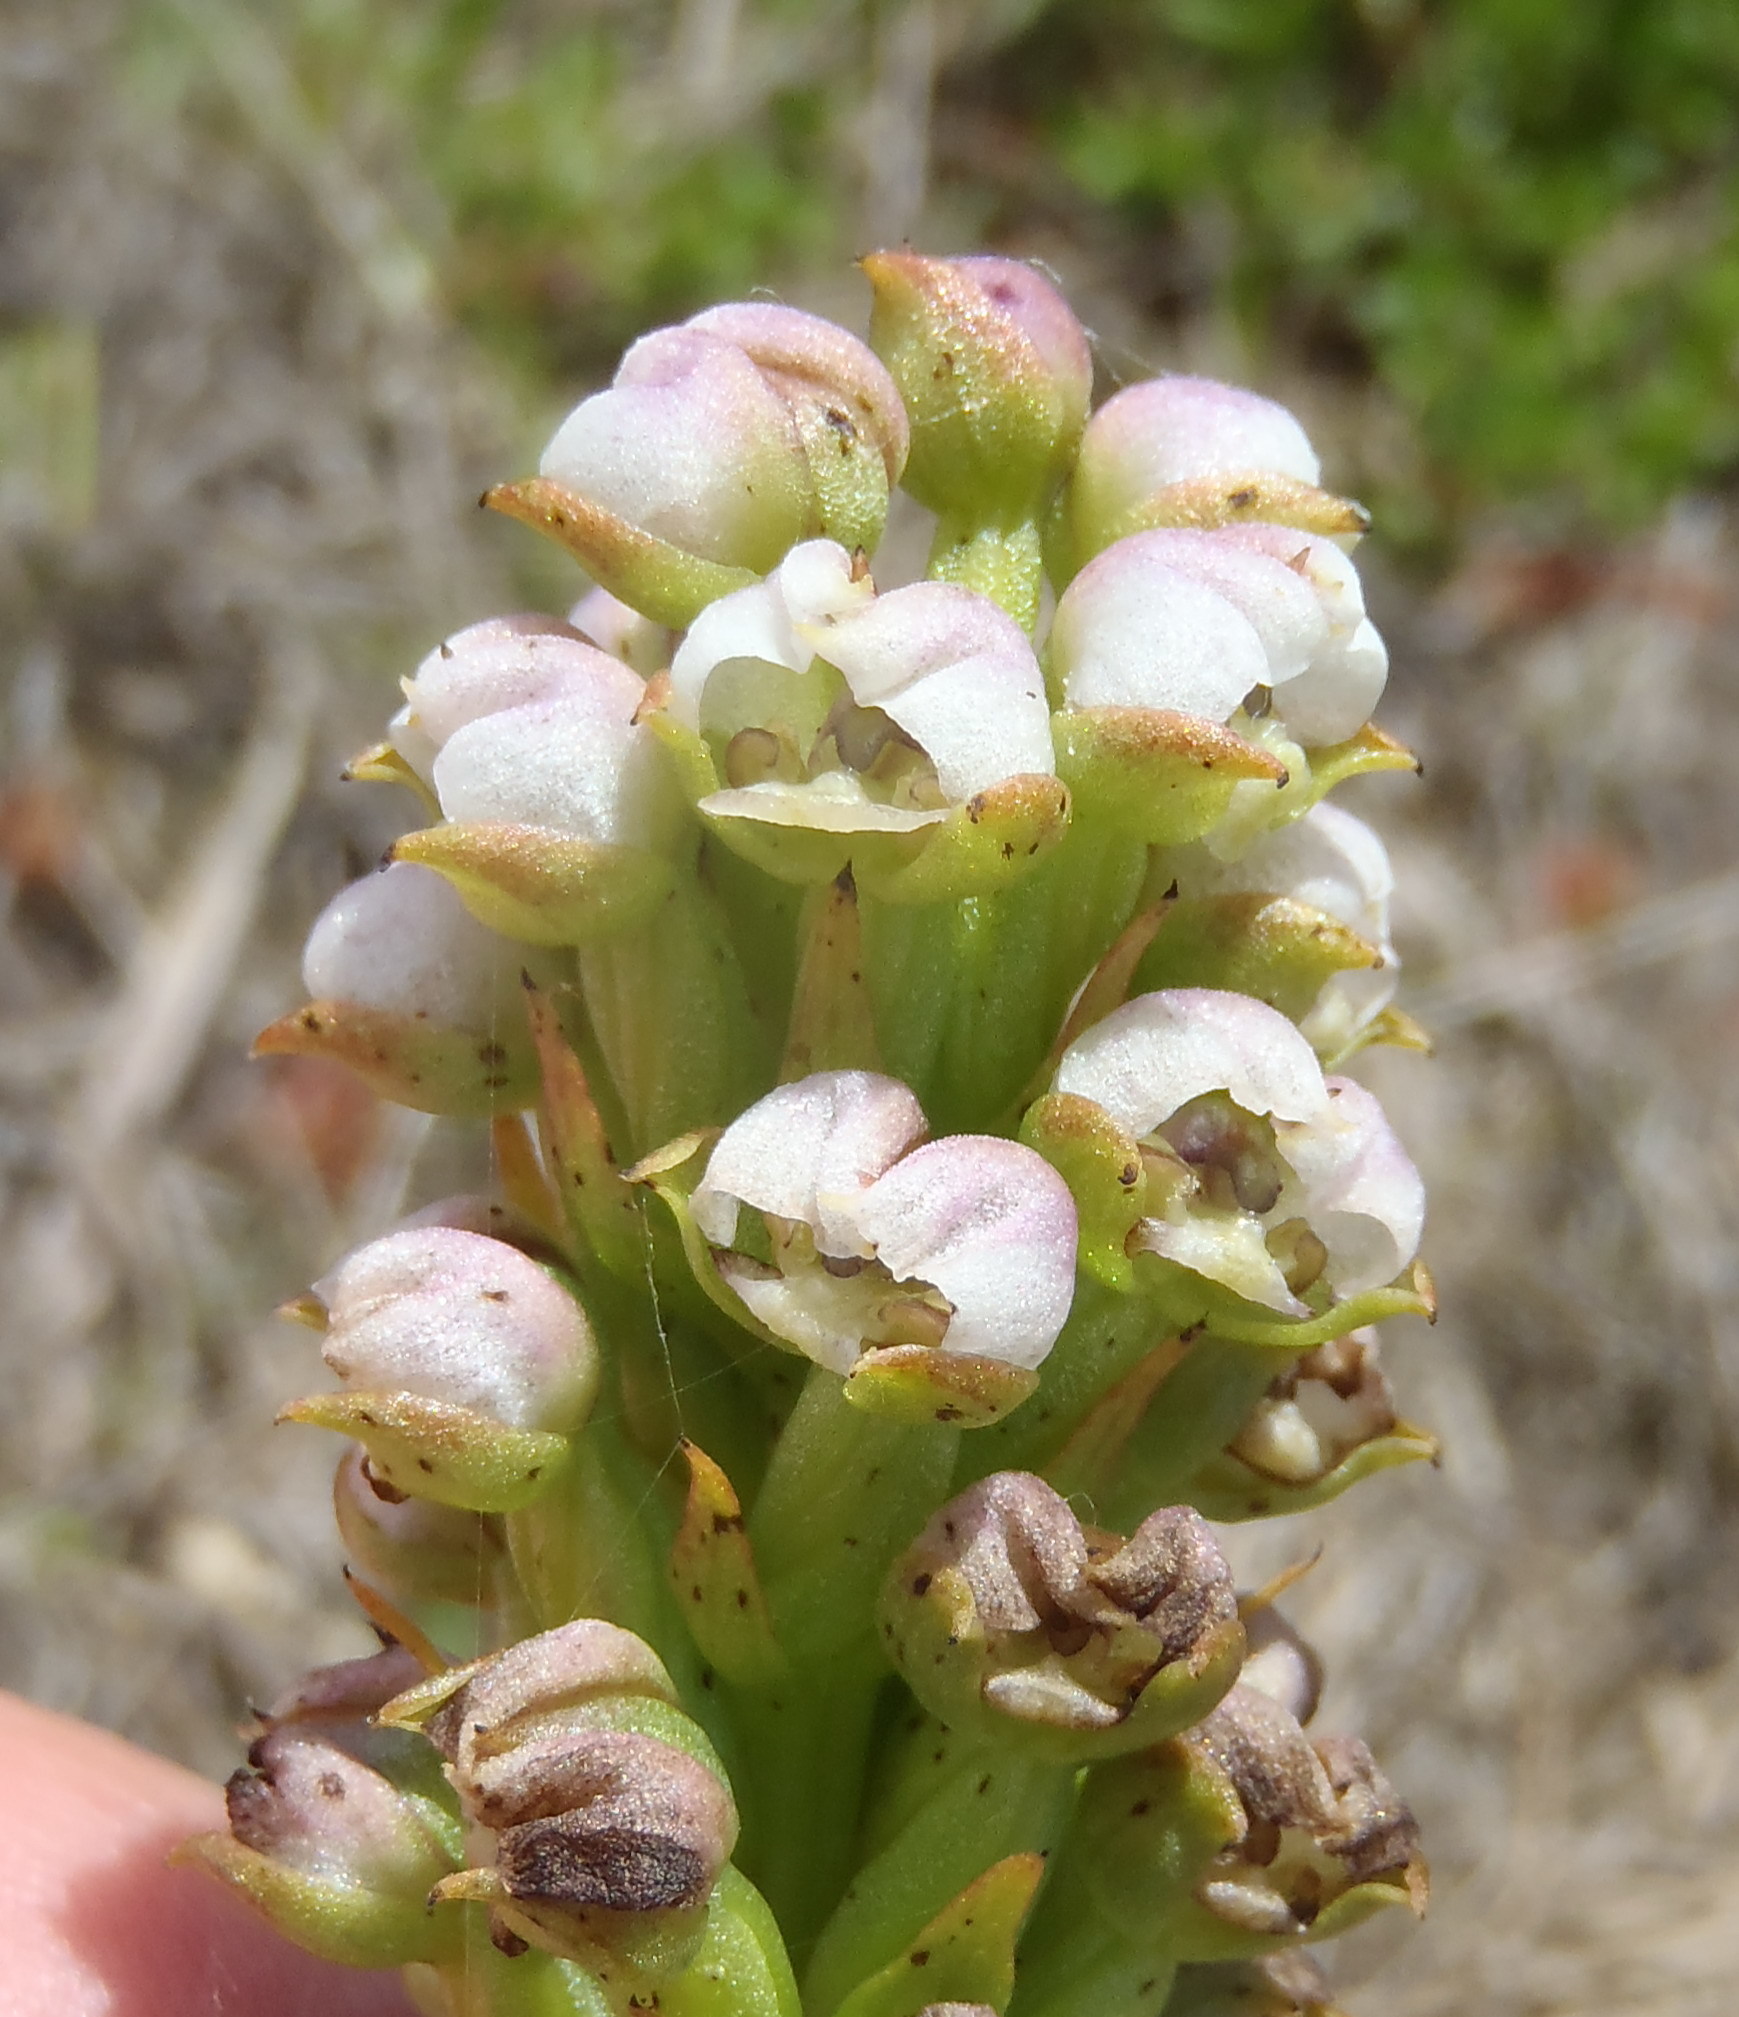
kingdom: Plantae
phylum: Tracheophyta
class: Liliopsida
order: Asparagales
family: Orchidaceae
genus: Evotella
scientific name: Evotella carnosa
